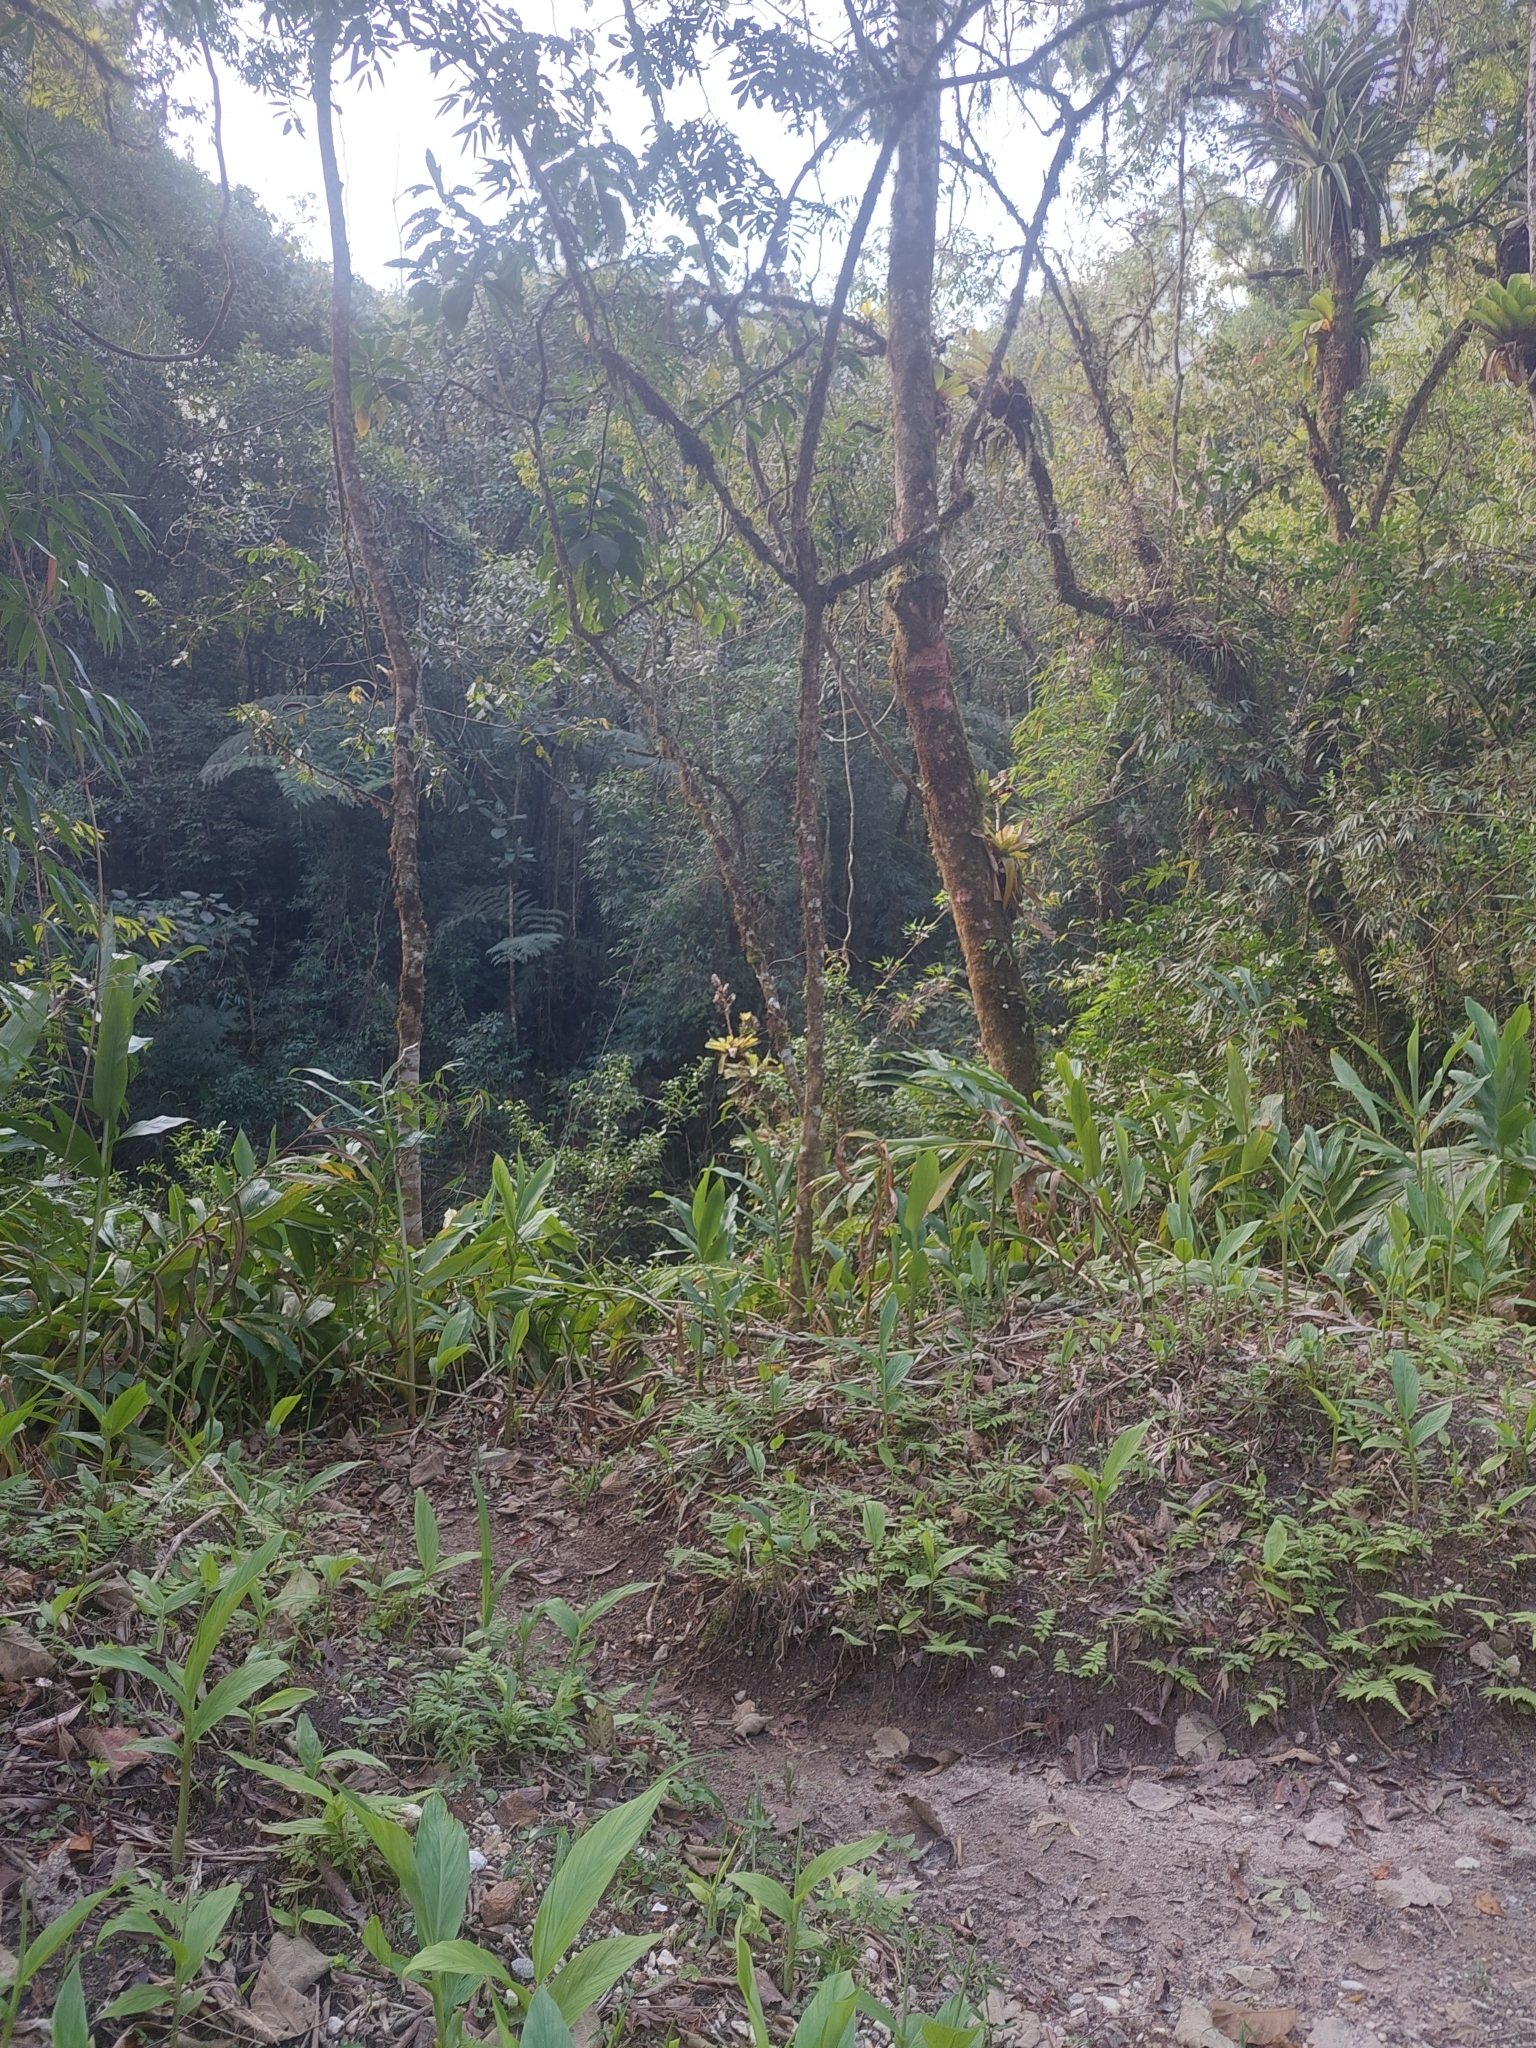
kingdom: Plantae
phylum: Tracheophyta
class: Liliopsida
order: Zingiberales
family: Zingiberaceae
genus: Hedychium
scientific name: Hedychium coronarium
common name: White garland-lily
